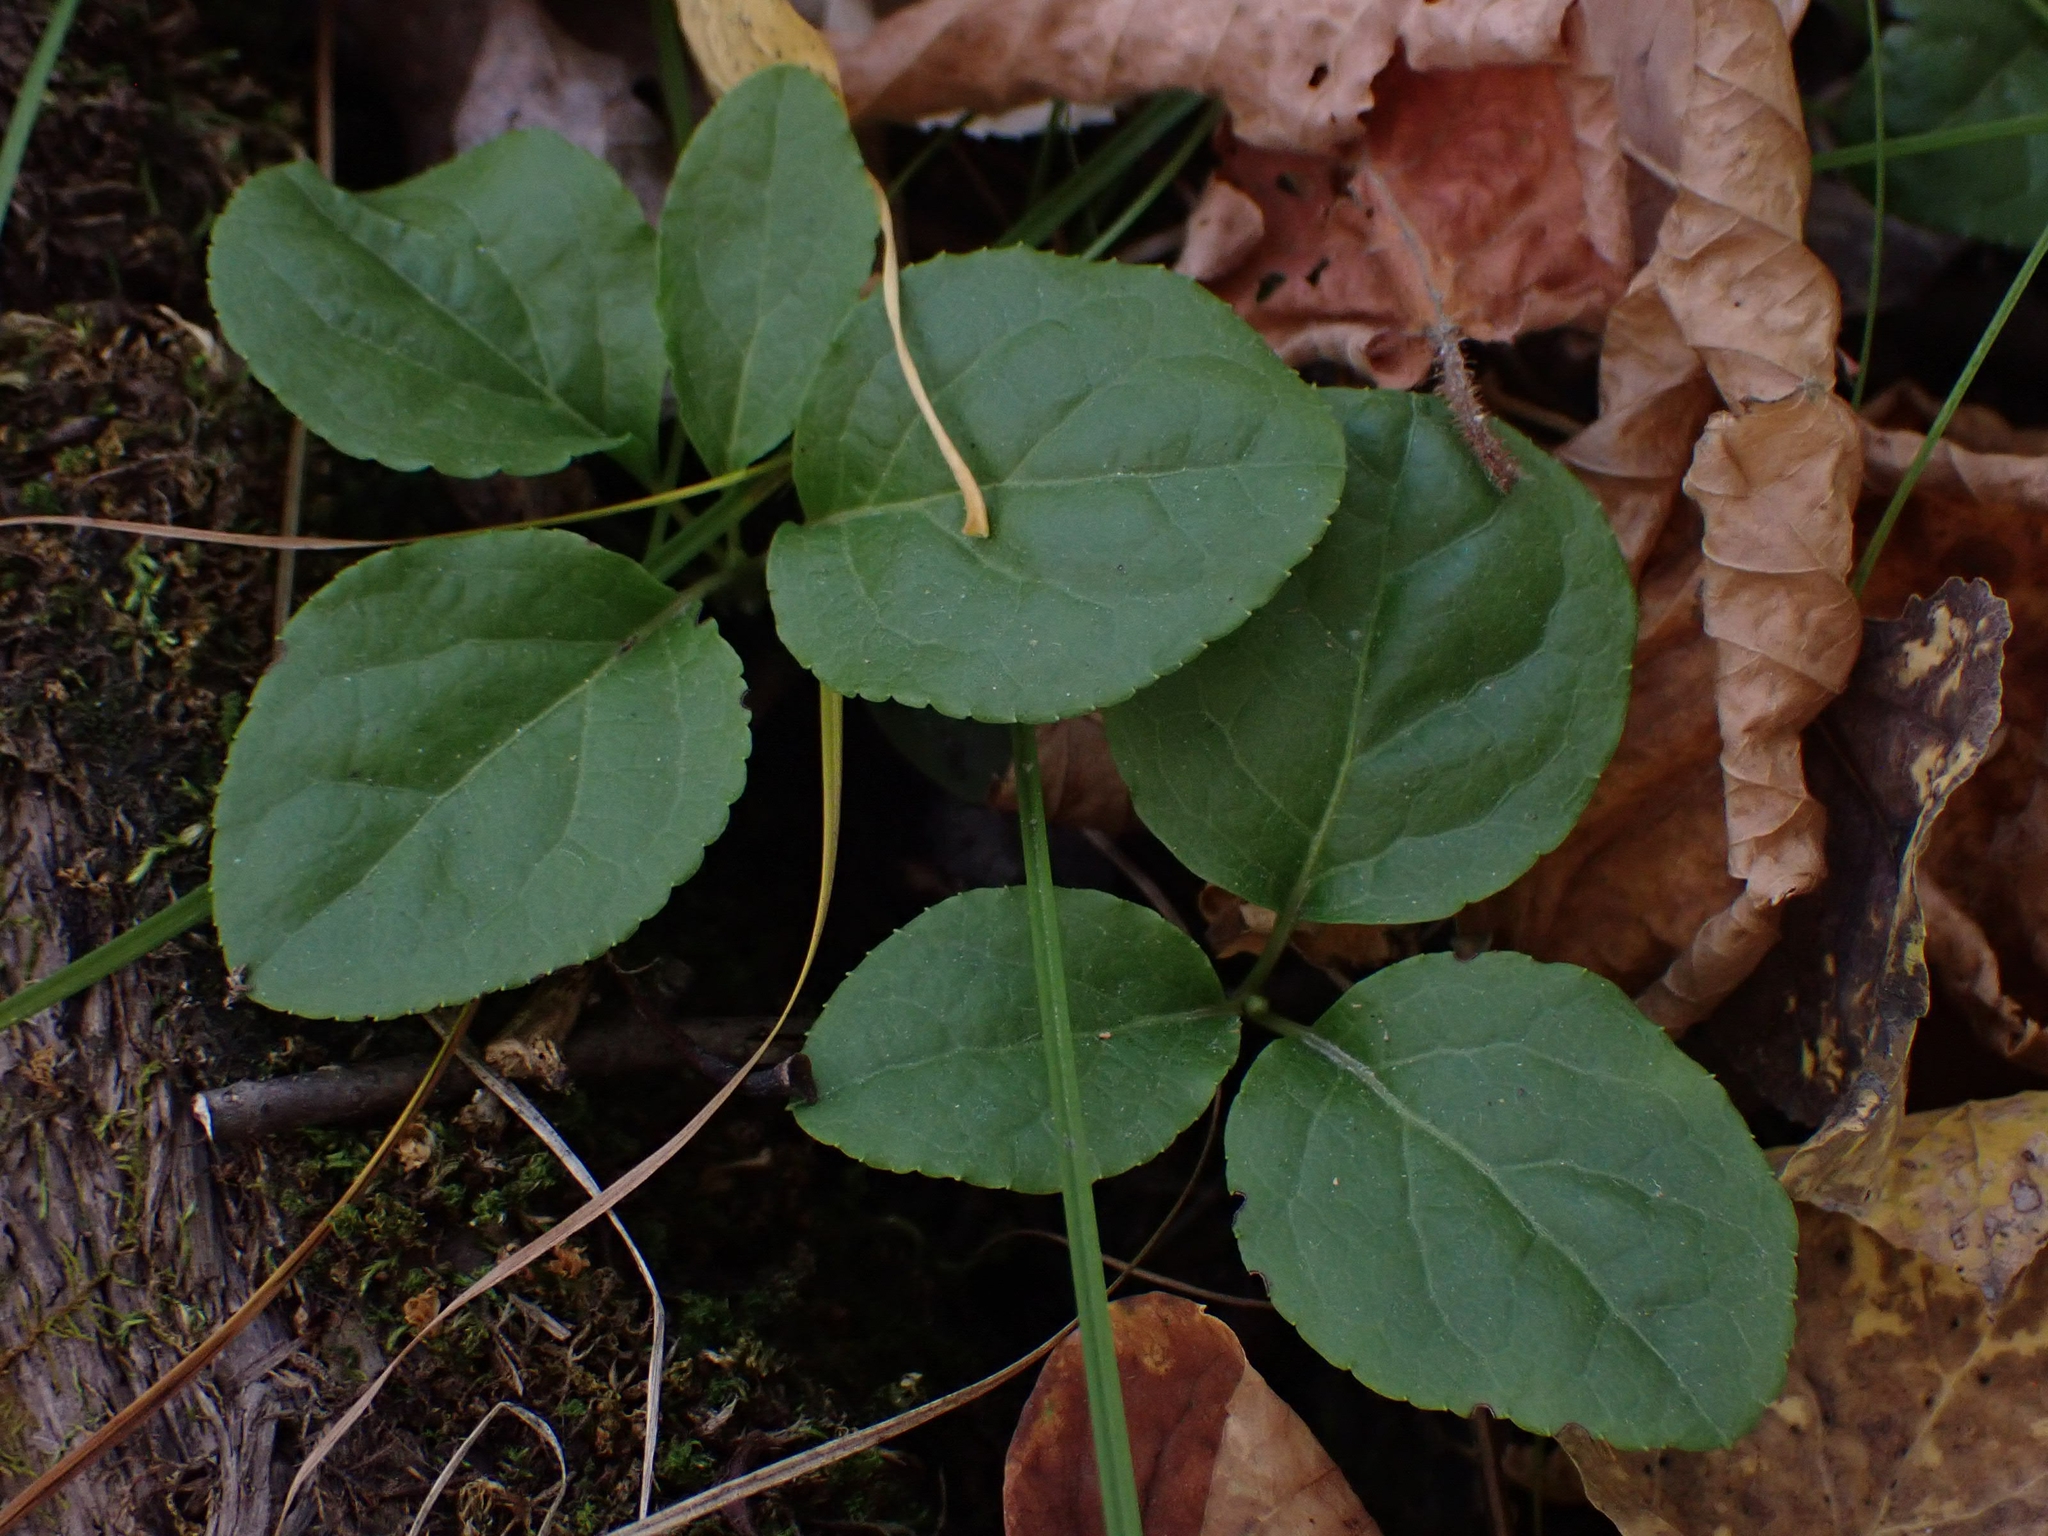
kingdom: Plantae
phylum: Tracheophyta
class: Magnoliopsida
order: Ericales
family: Ericaceae
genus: Orthilia
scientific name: Orthilia secunda
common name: One-sided orthilia
